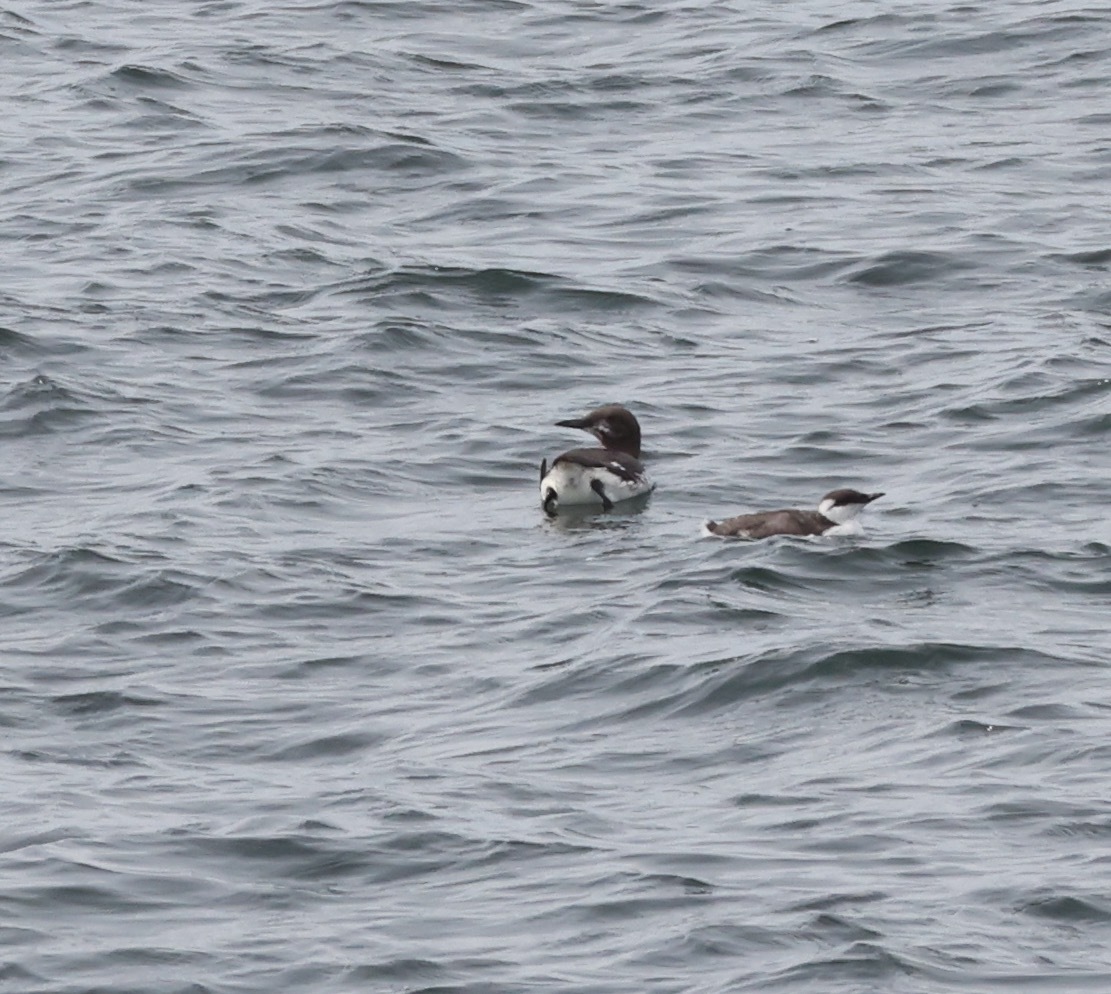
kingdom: Animalia
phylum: Chordata
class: Aves
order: Charadriiformes
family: Alcidae
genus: Uria
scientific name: Uria aalge
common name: Common murre
